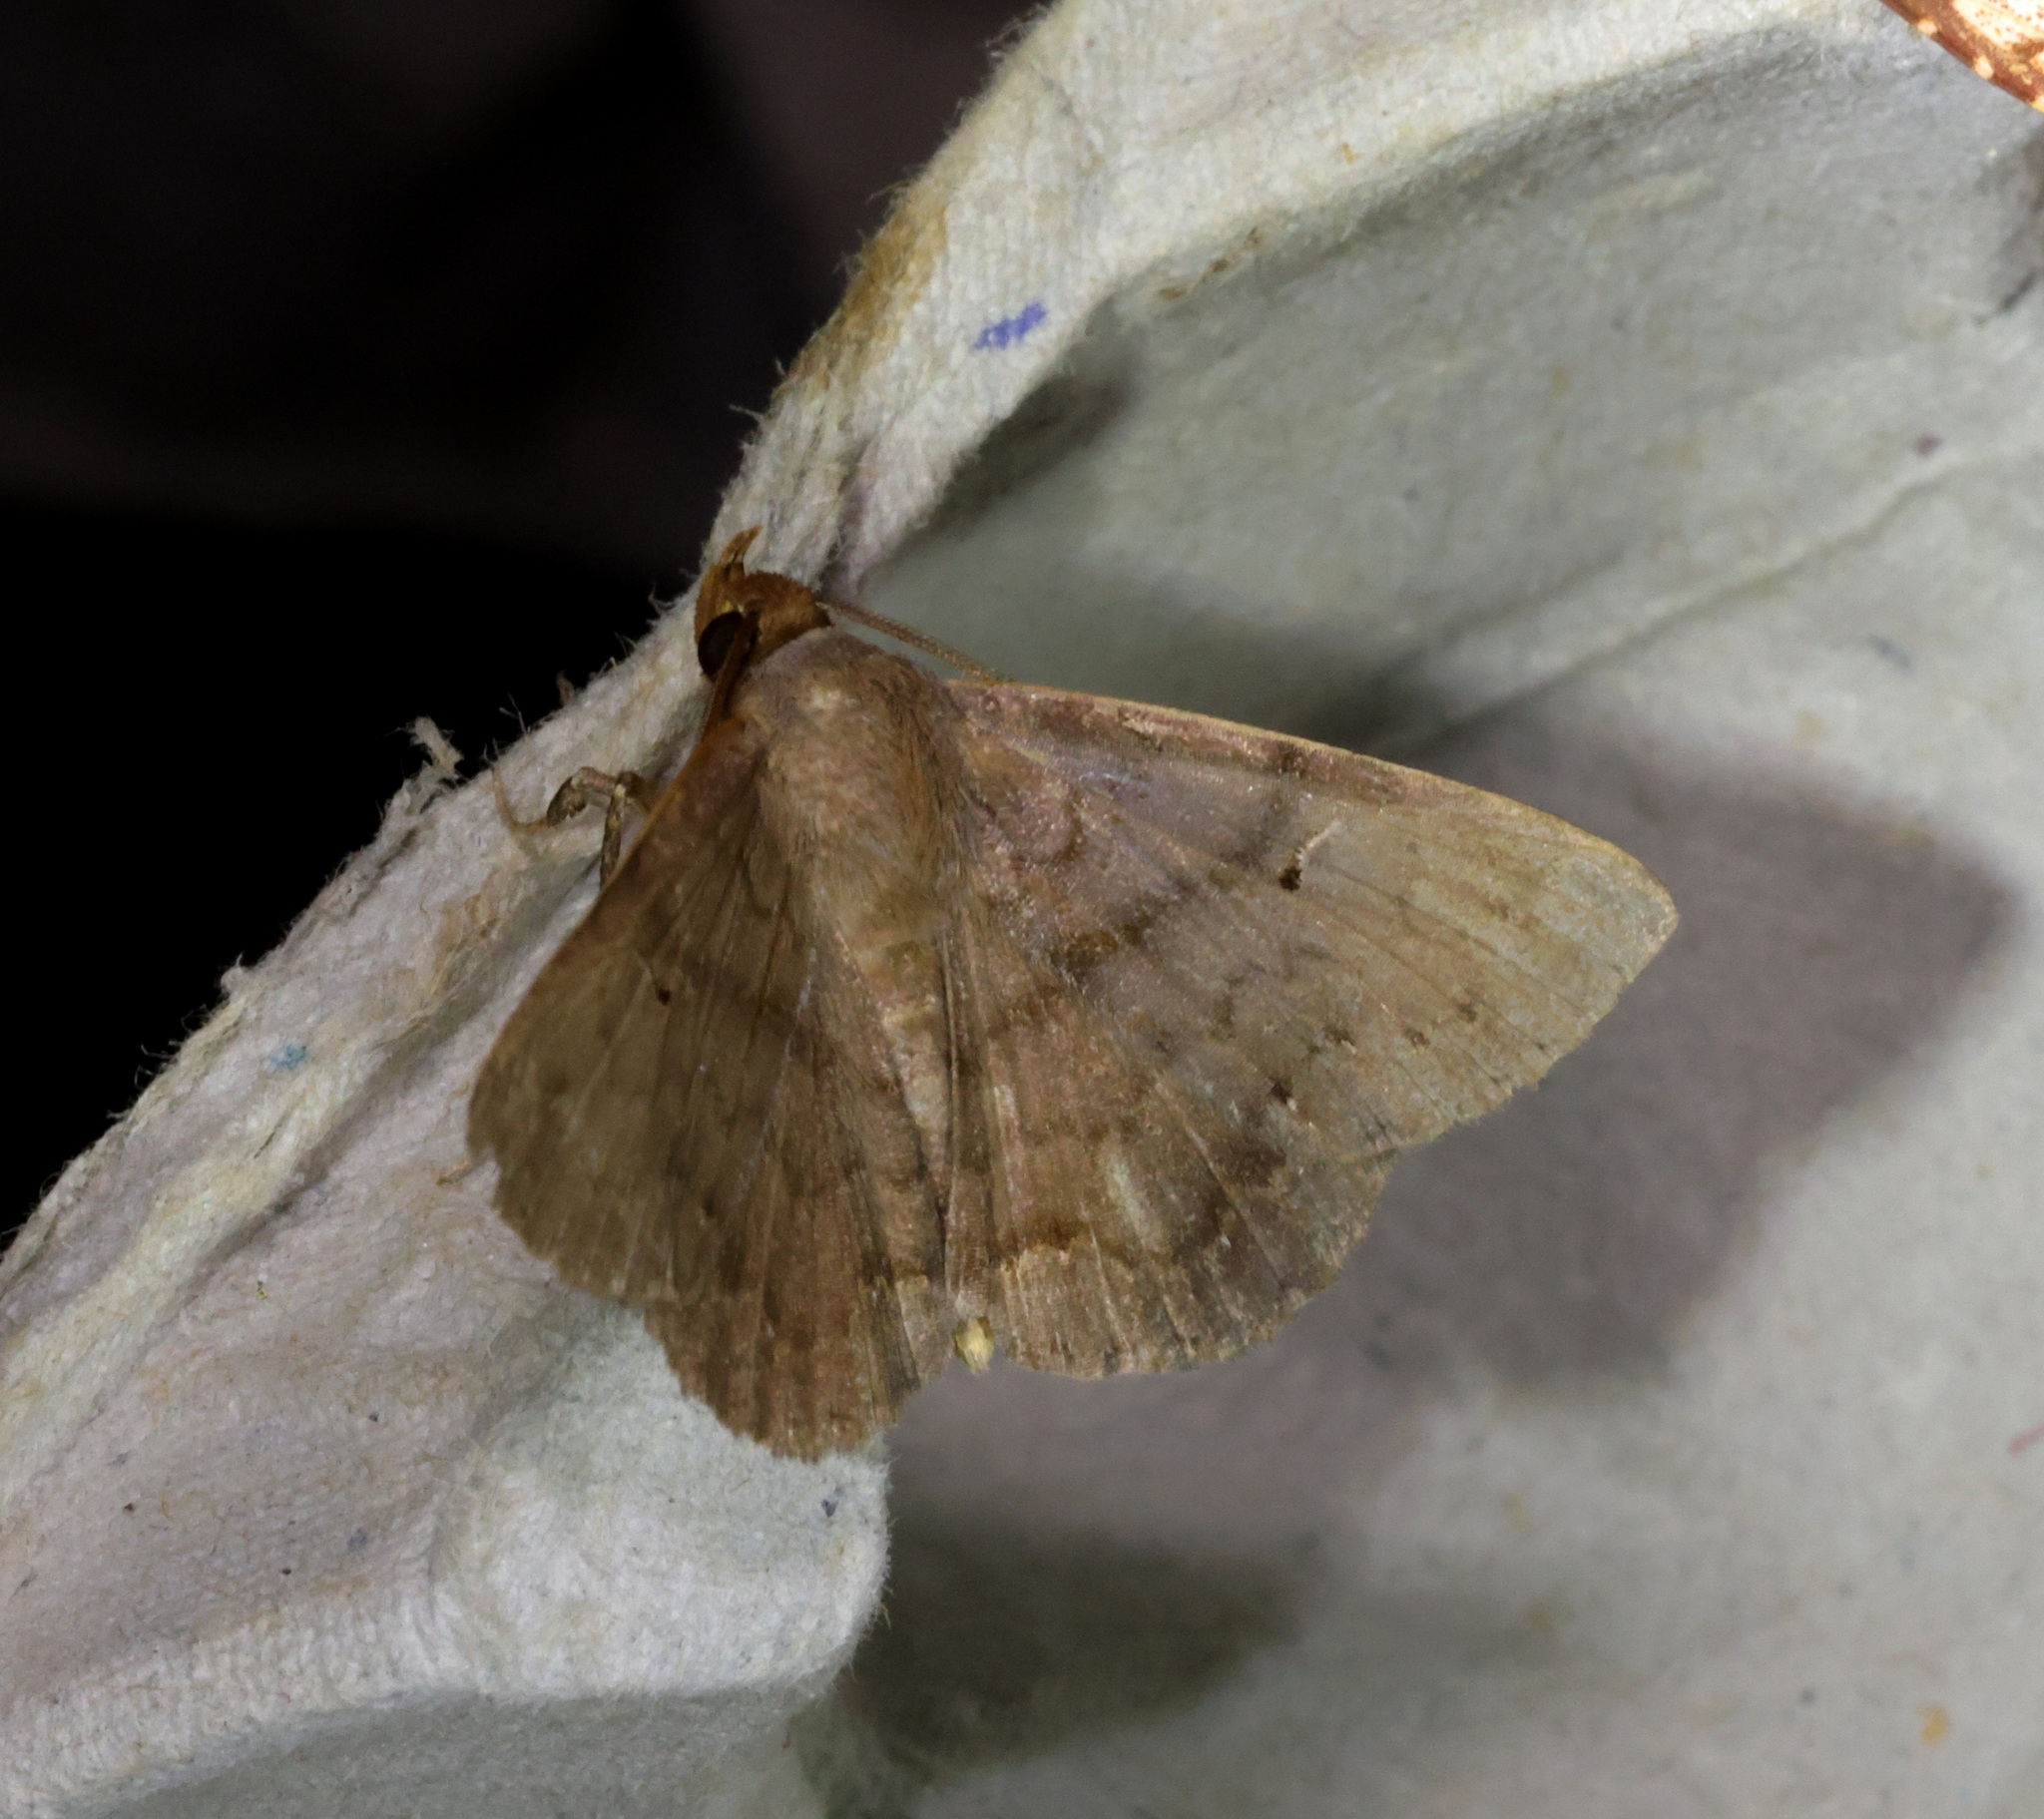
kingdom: Animalia
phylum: Arthropoda
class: Insecta
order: Lepidoptera
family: Erebidae
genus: Mecodina
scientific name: Mecodina bisignata
